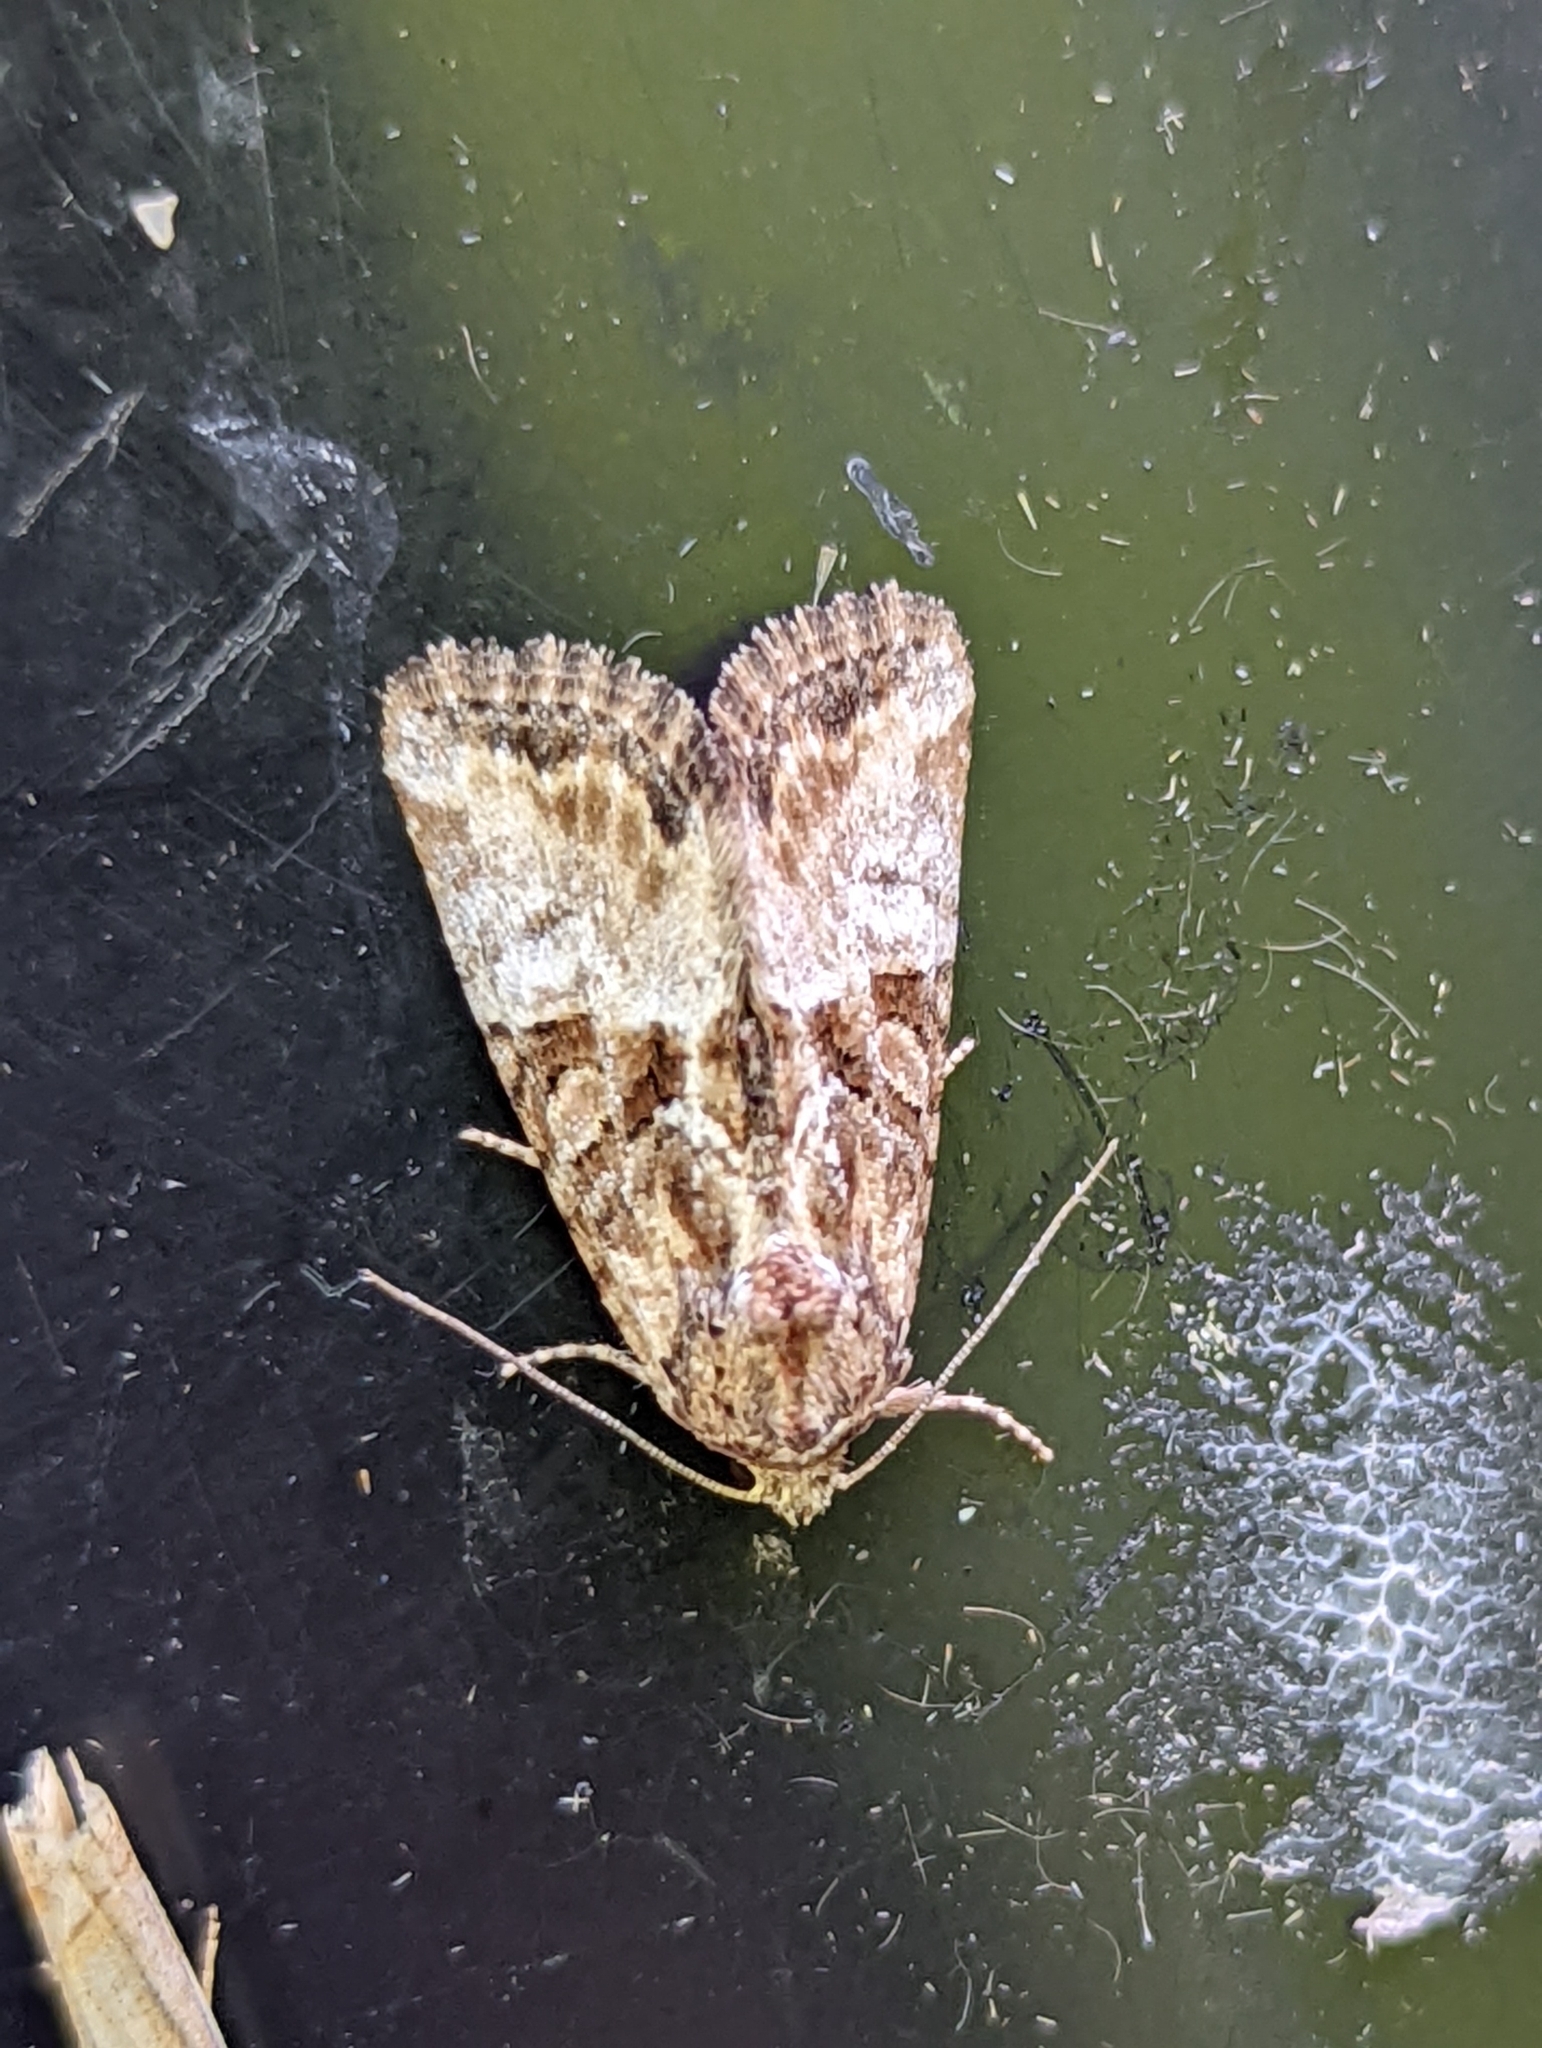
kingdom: Animalia
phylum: Arthropoda
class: Insecta
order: Lepidoptera
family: Noctuidae
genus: Mesoligia
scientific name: Mesoligia furuncula
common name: Cloaked minor
